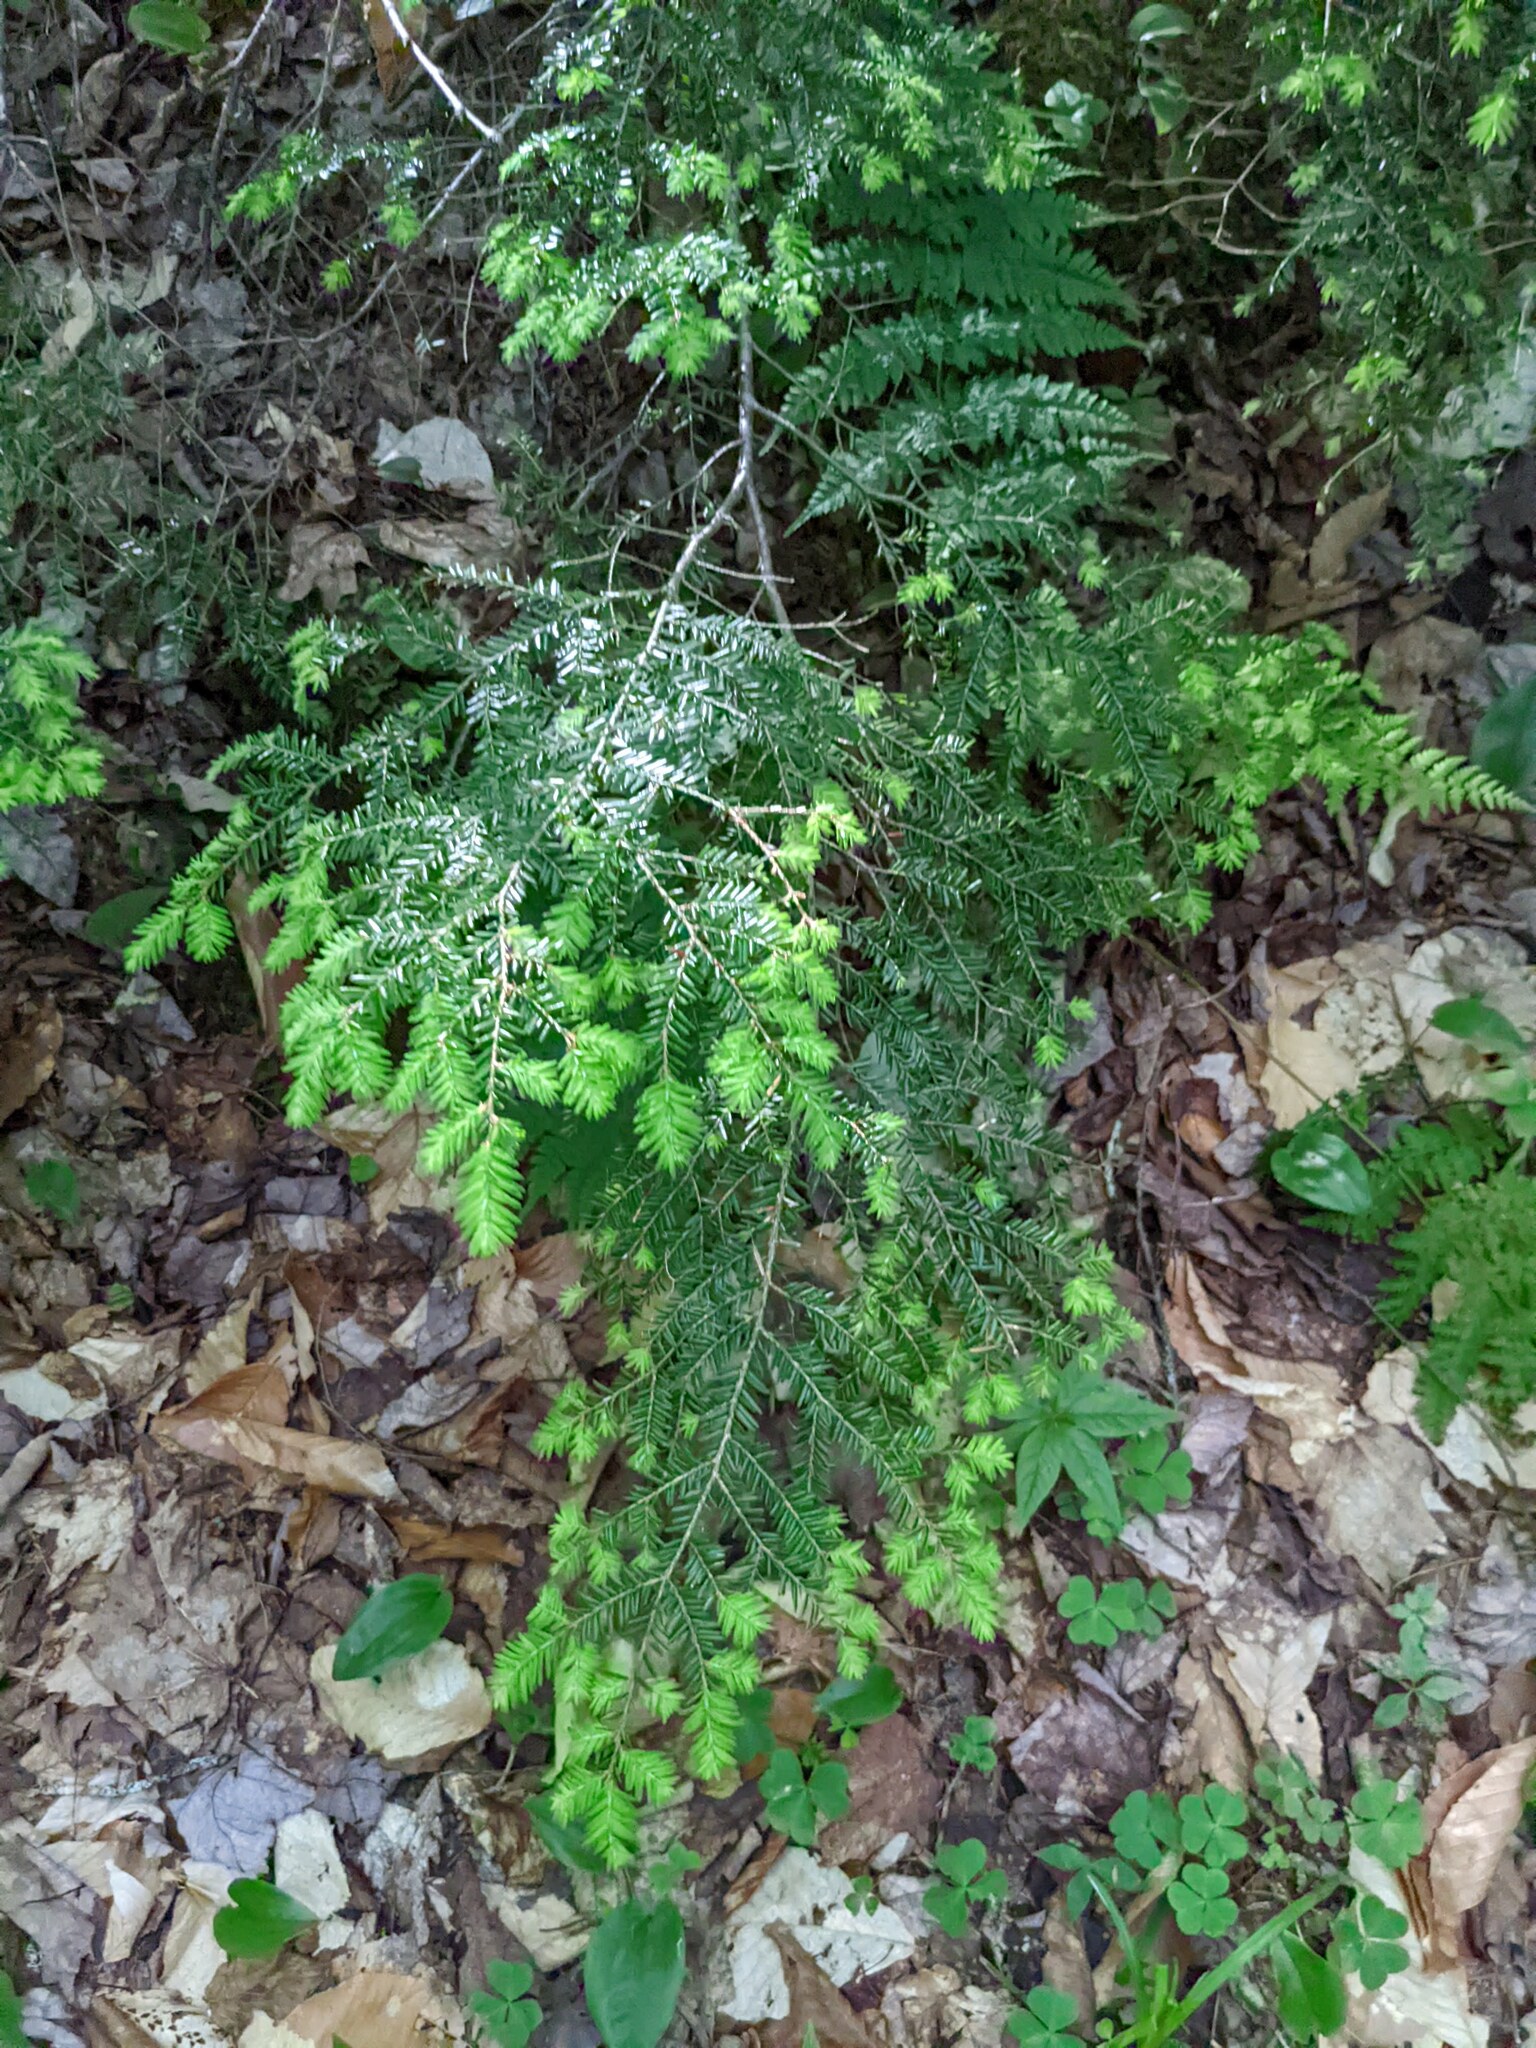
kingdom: Plantae
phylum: Tracheophyta
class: Pinopsida
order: Pinales
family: Pinaceae
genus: Tsuga
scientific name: Tsuga canadensis
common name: Eastern hemlock
